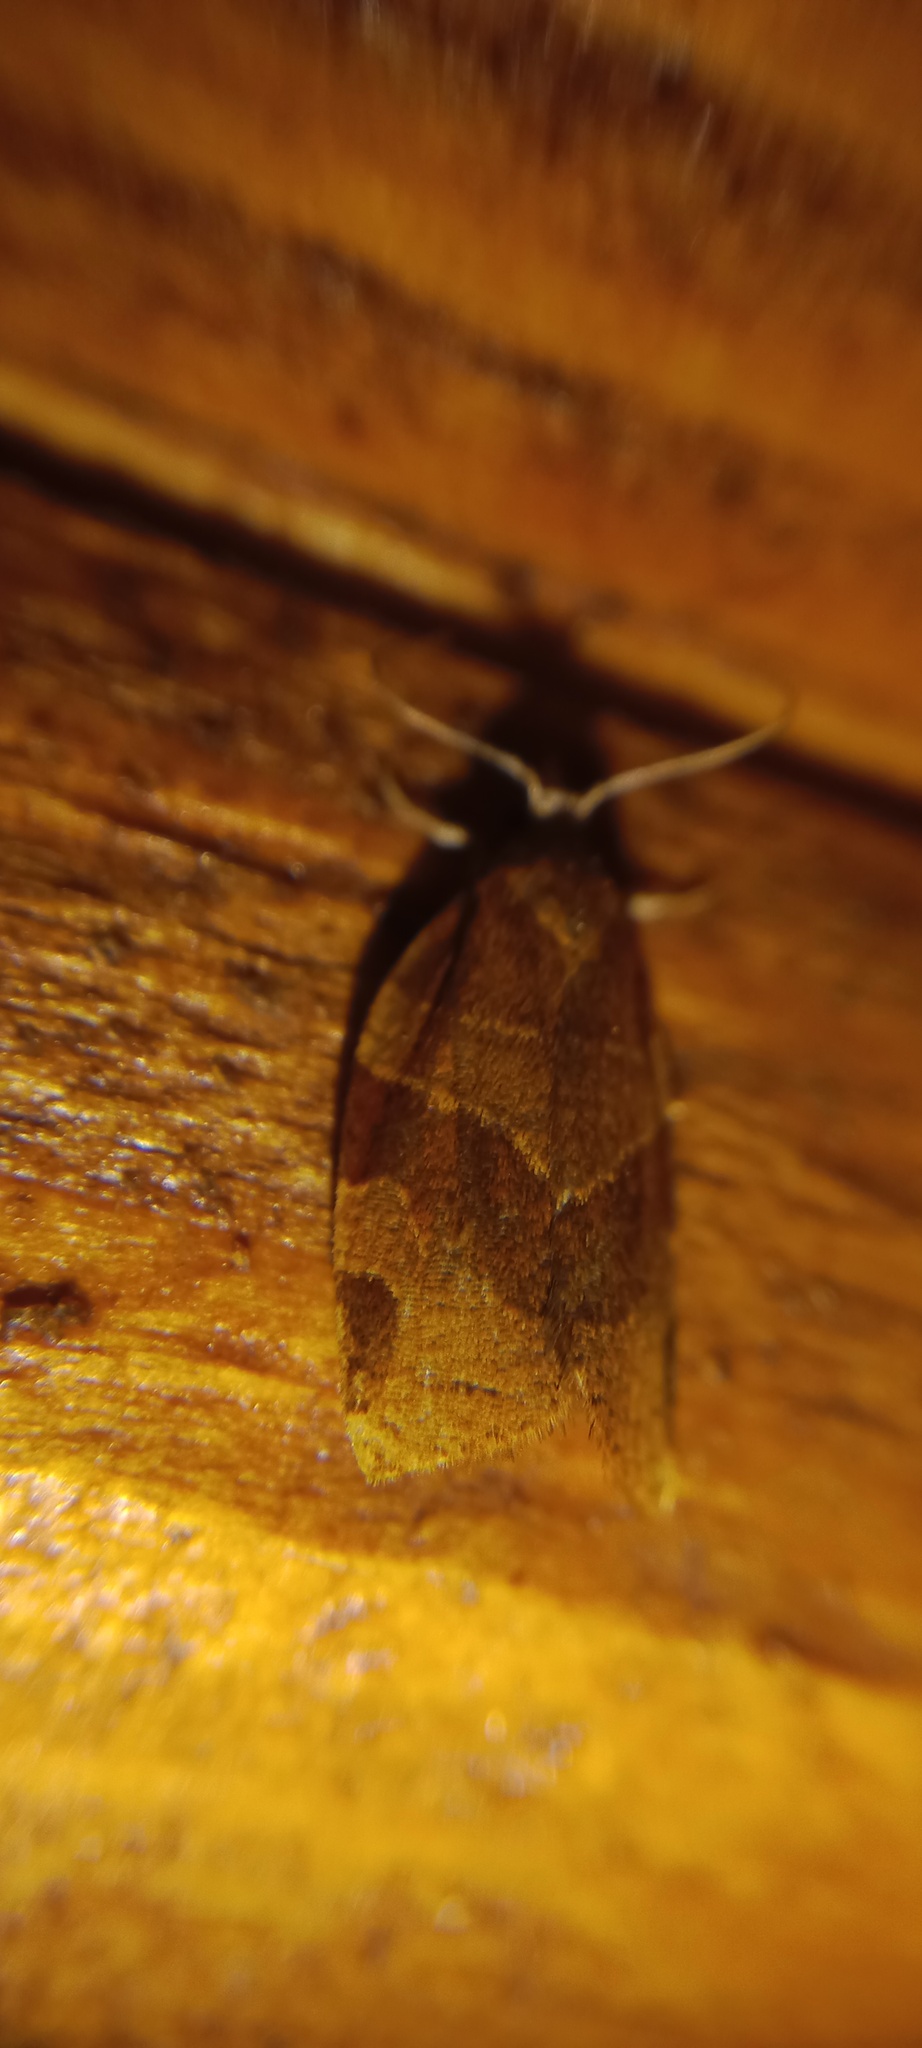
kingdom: Animalia
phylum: Arthropoda
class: Insecta
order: Lepidoptera
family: Tortricidae
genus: Pandemis
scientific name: Pandemis cinnamomeana
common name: White-faced twist
